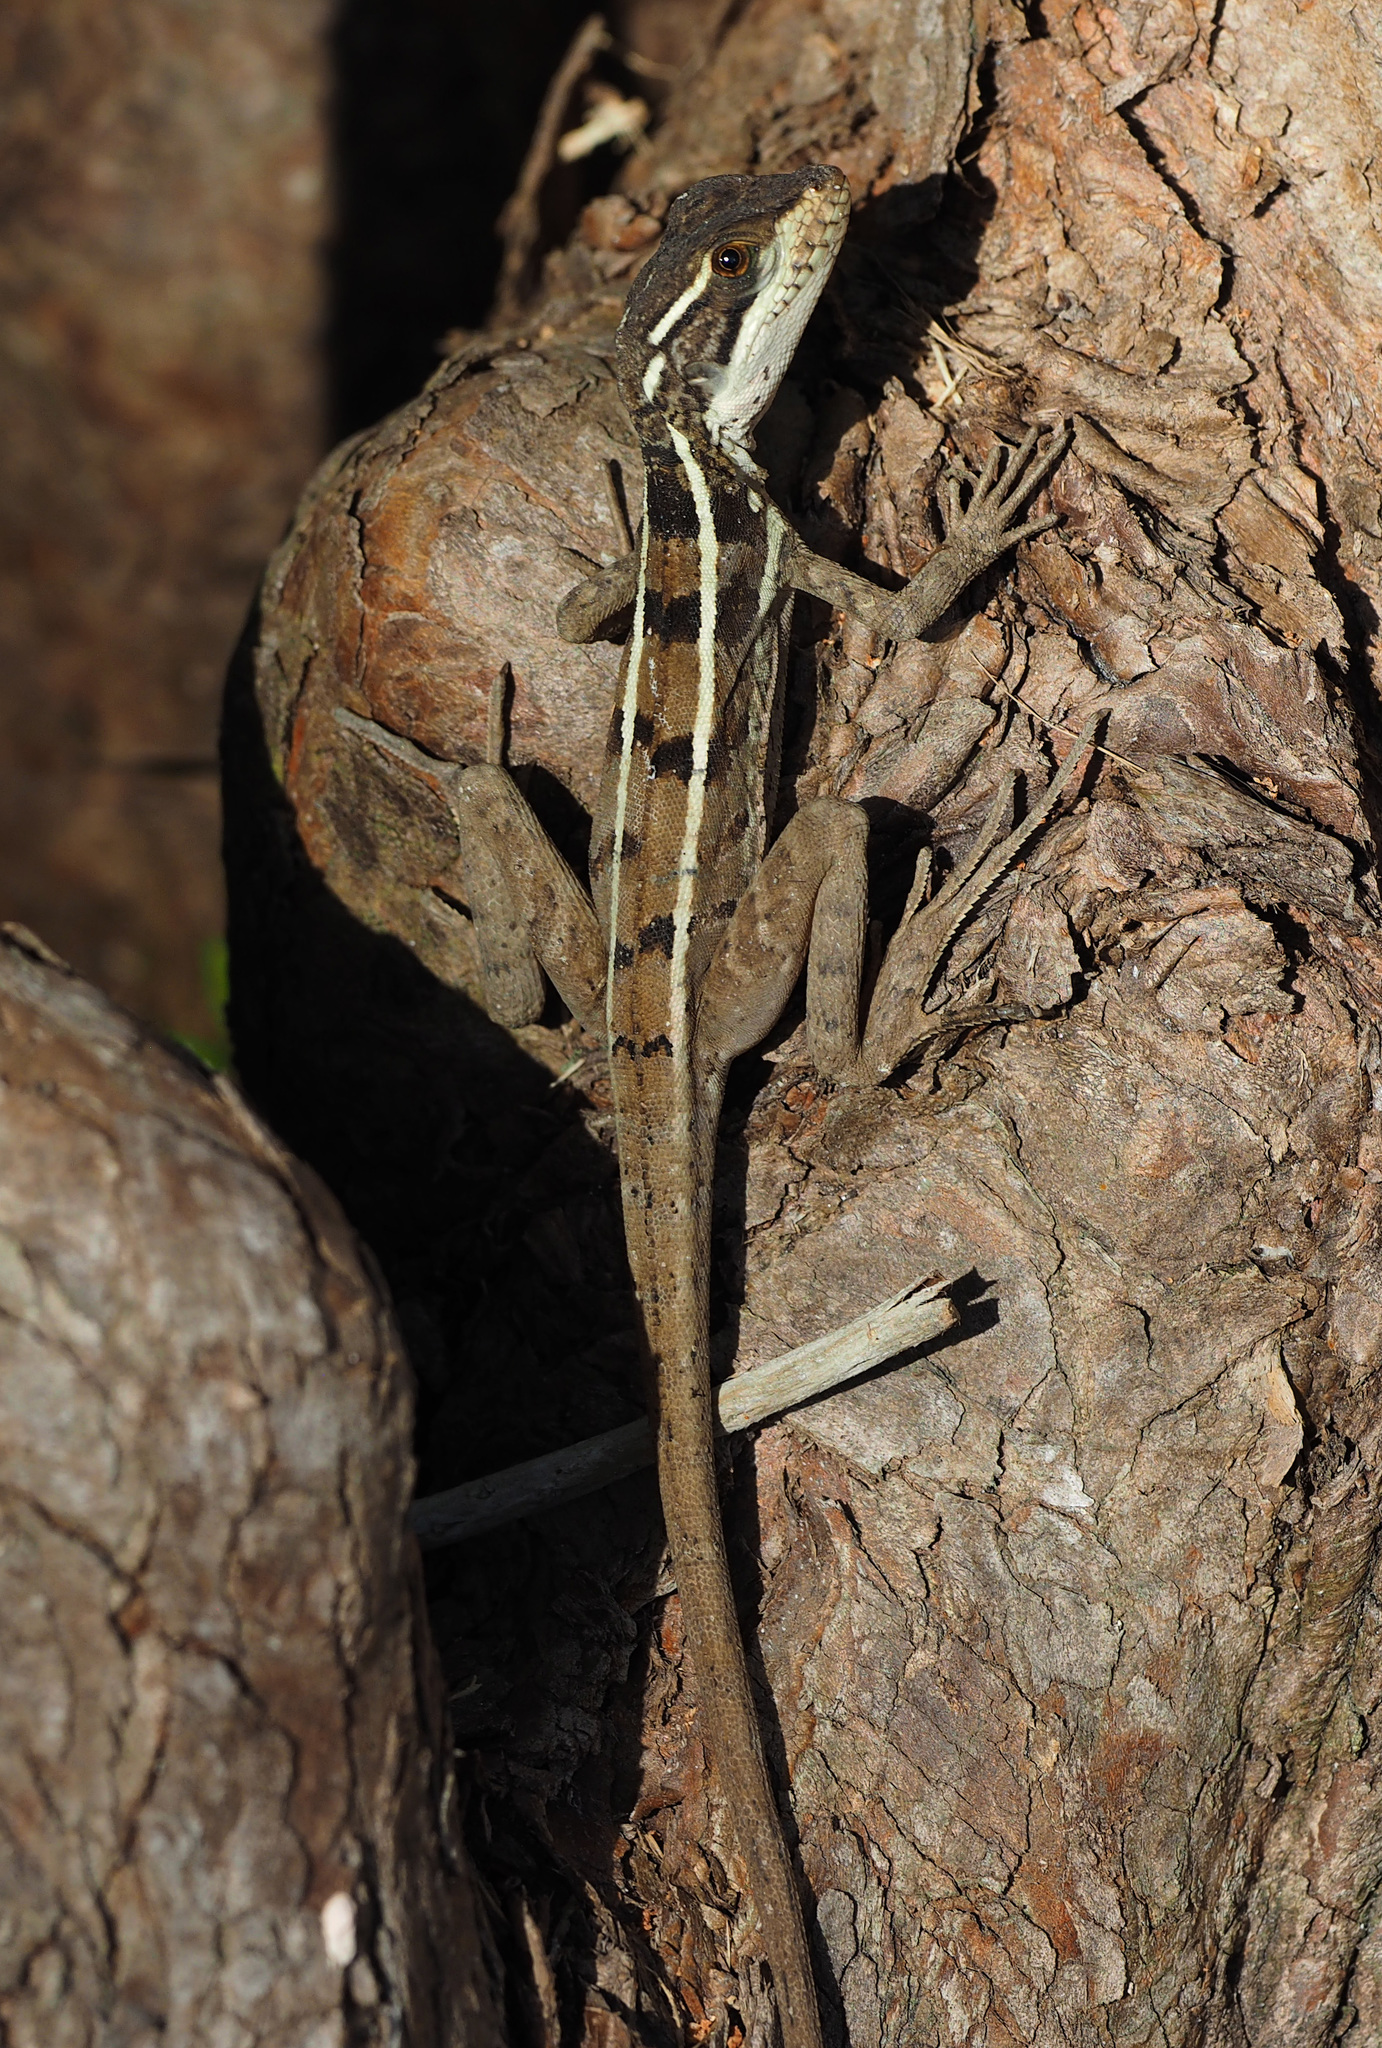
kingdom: Animalia
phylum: Chordata
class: Squamata
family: Corytophanidae
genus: Basiliscus
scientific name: Basiliscus vittatus
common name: Brown basilisk
